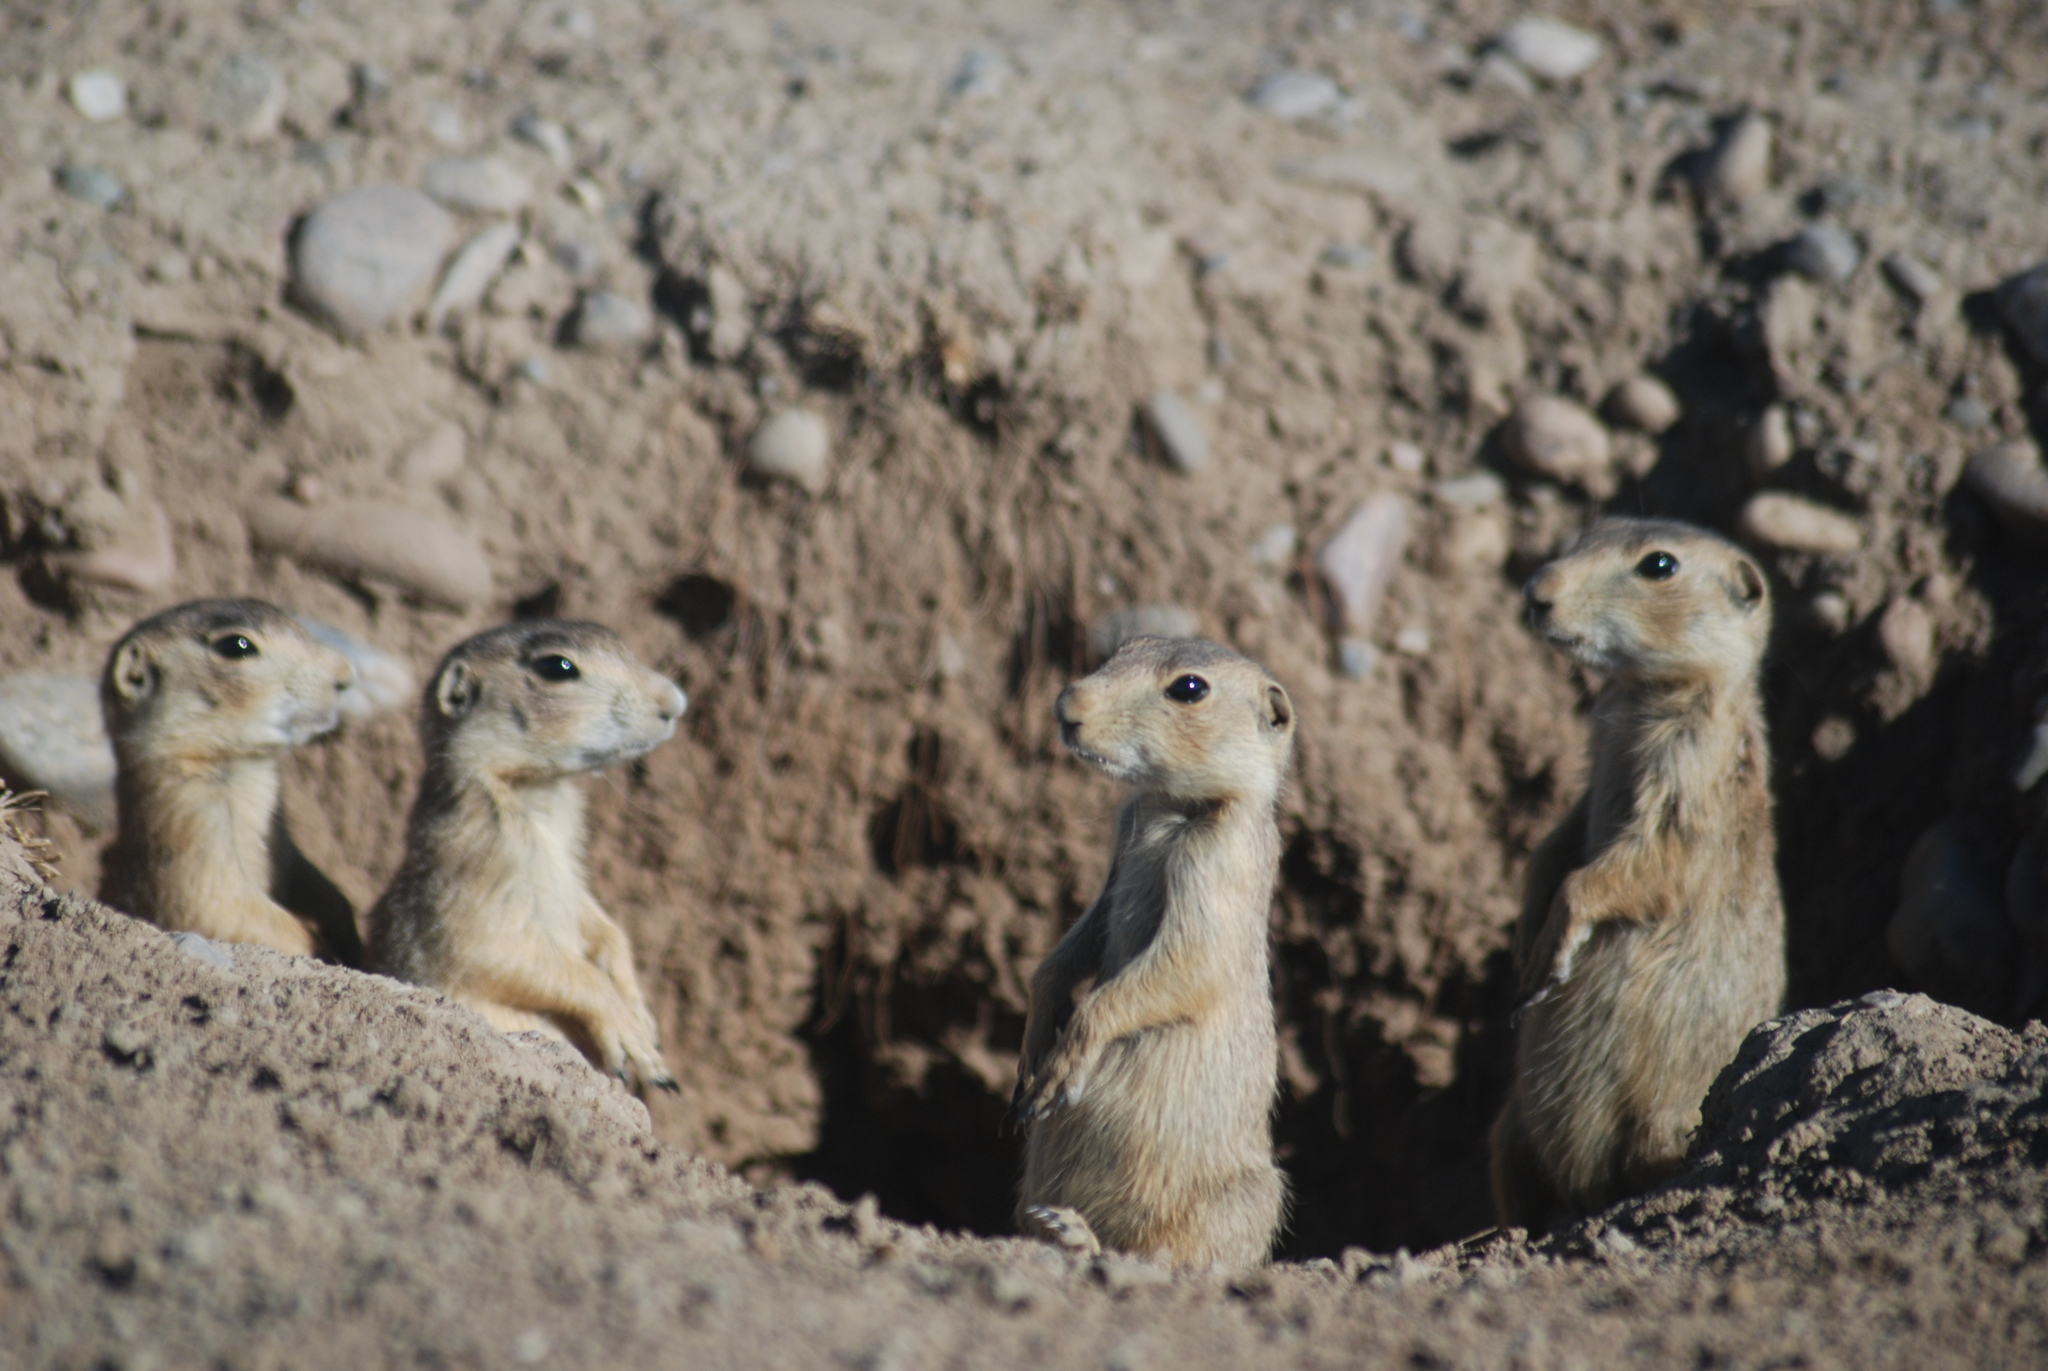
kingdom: Animalia
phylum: Chordata
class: Mammalia
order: Rodentia
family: Sciuridae
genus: Cynomys
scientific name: Cynomys gunnisoni
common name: Gunnison's prairie dog
